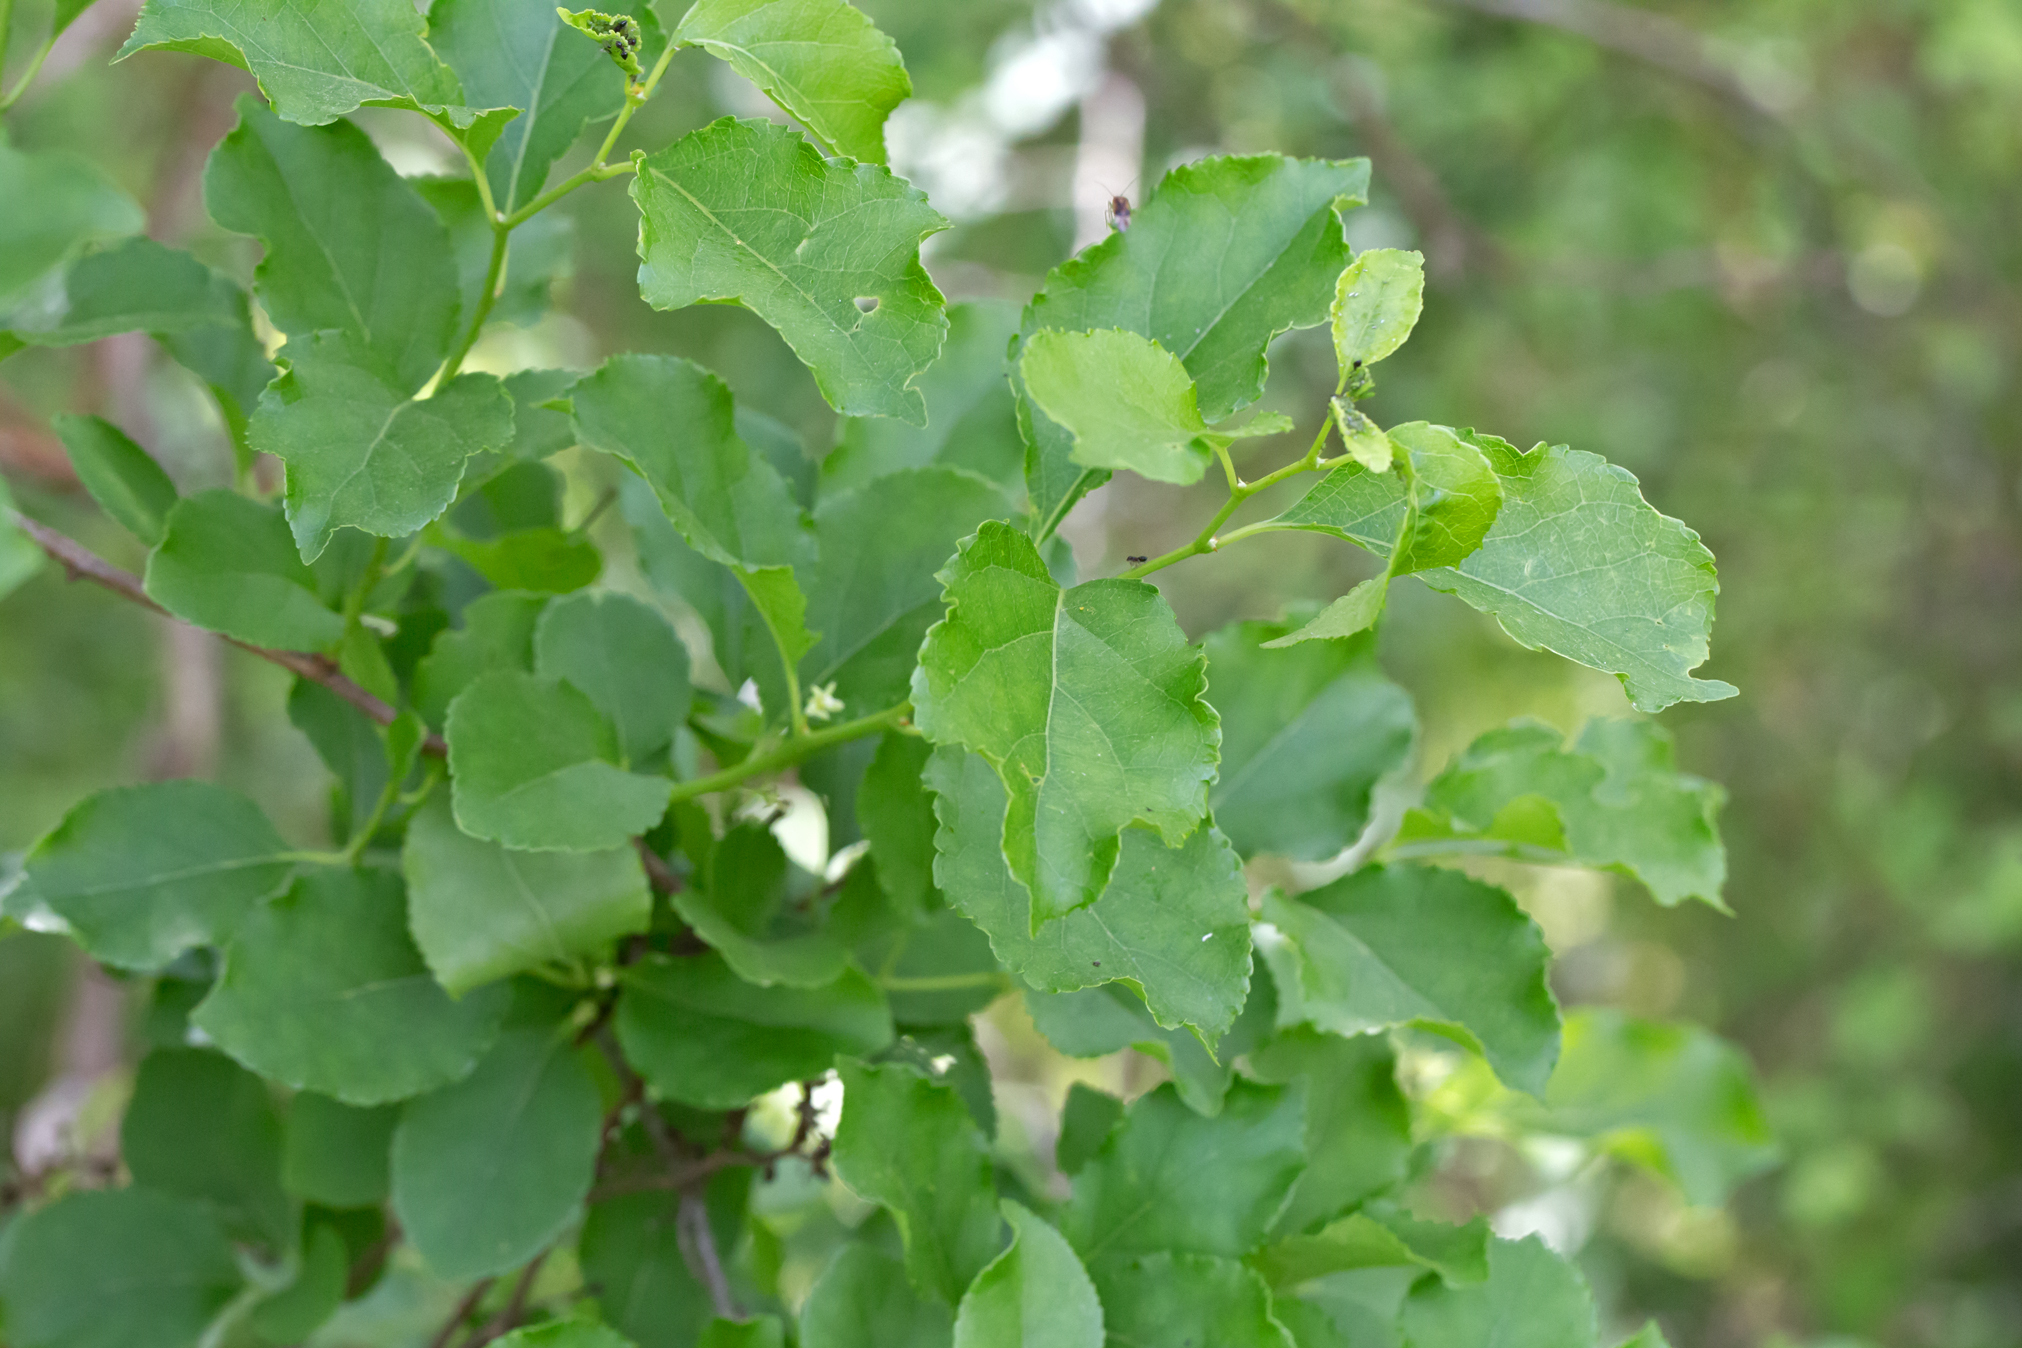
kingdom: Plantae
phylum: Tracheophyta
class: Magnoliopsida
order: Celastrales
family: Celastraceae
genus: Celastrus
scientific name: Celastrus orbiculatus
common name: Oriental bittersweet
